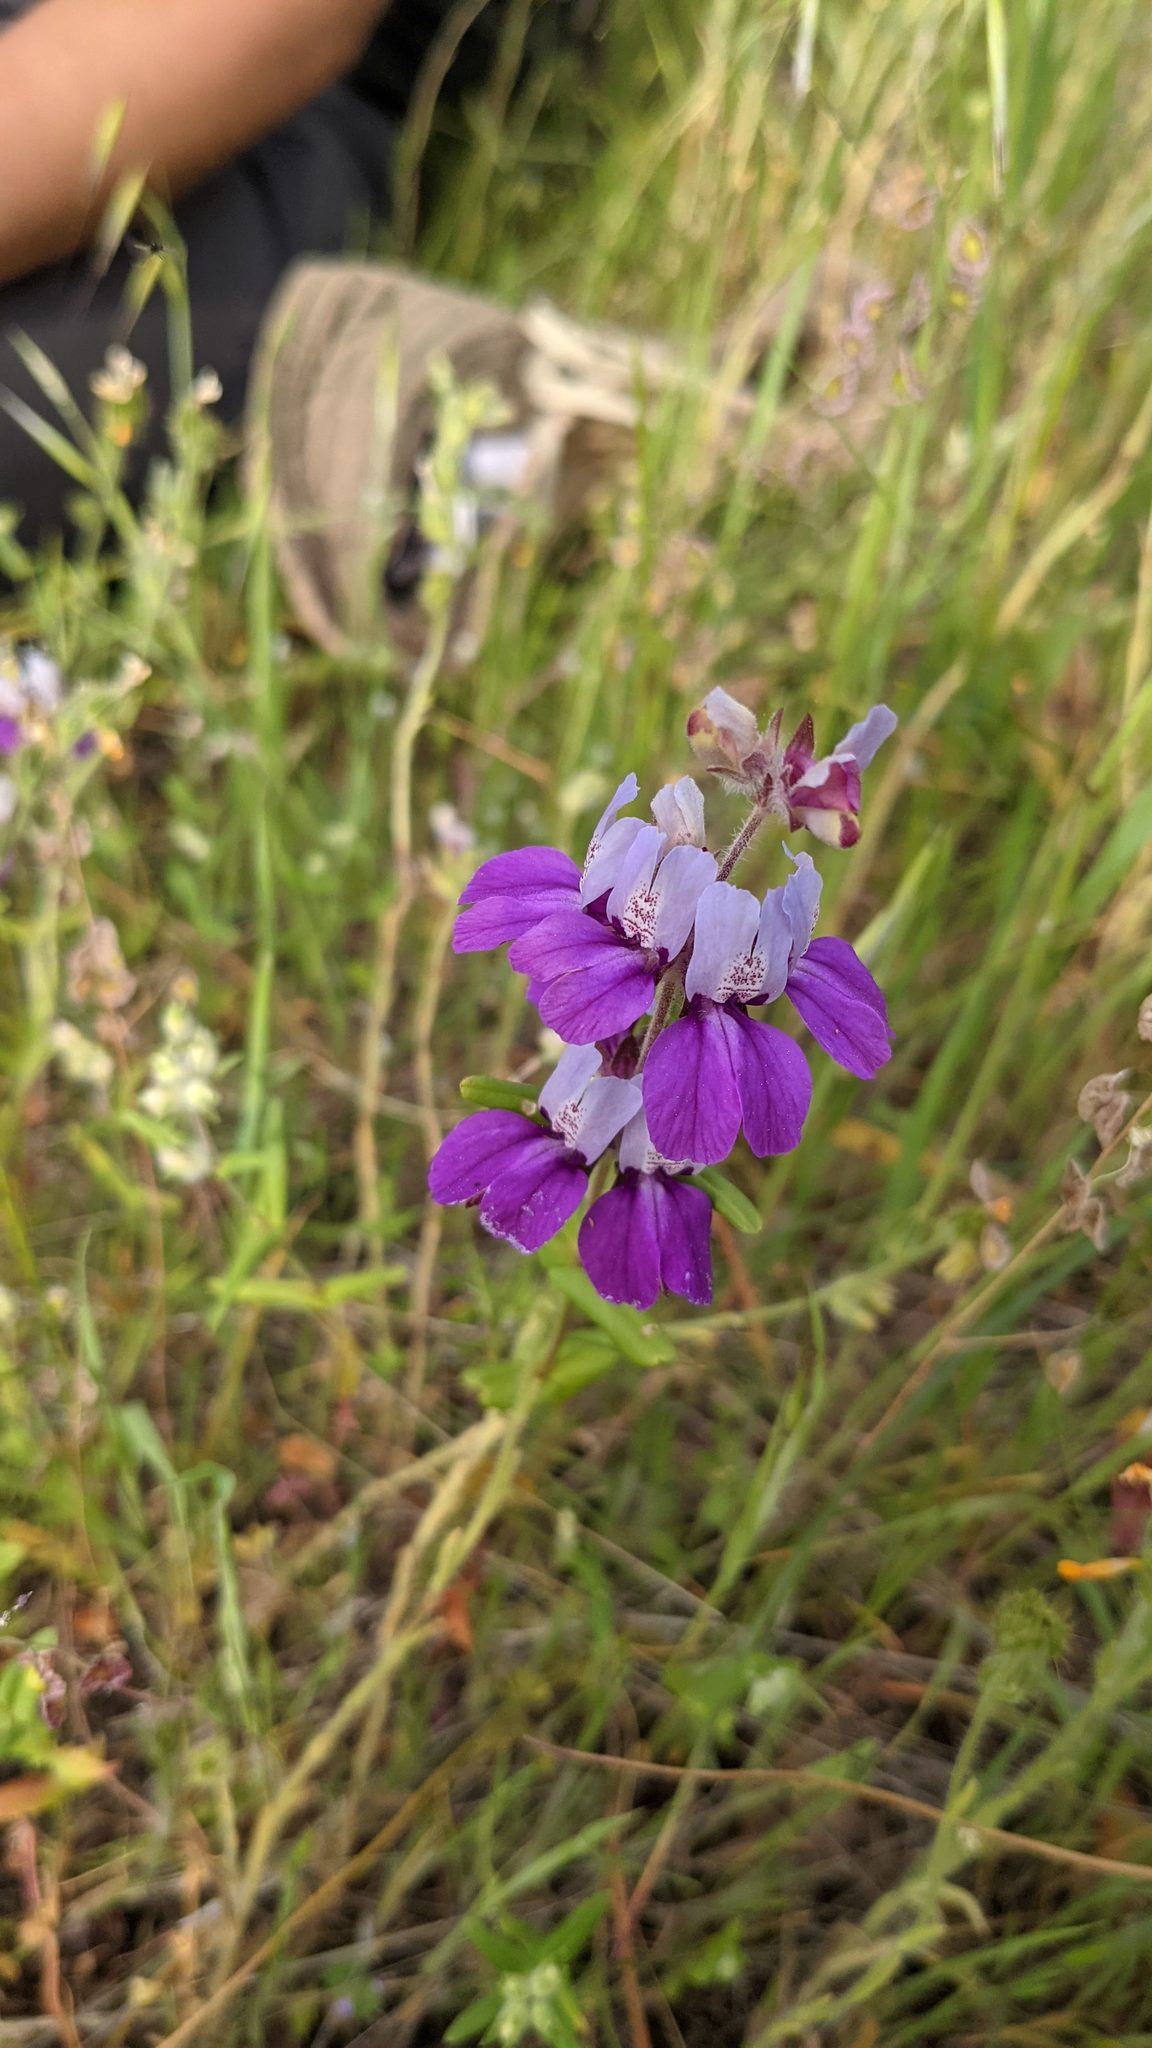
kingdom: Plantae
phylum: Tracheophyta
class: Magnoliopsida
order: Lamiales
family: Plantaginaceae
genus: Collinsia
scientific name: Collinsia heterophylla
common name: Chinese-houses
